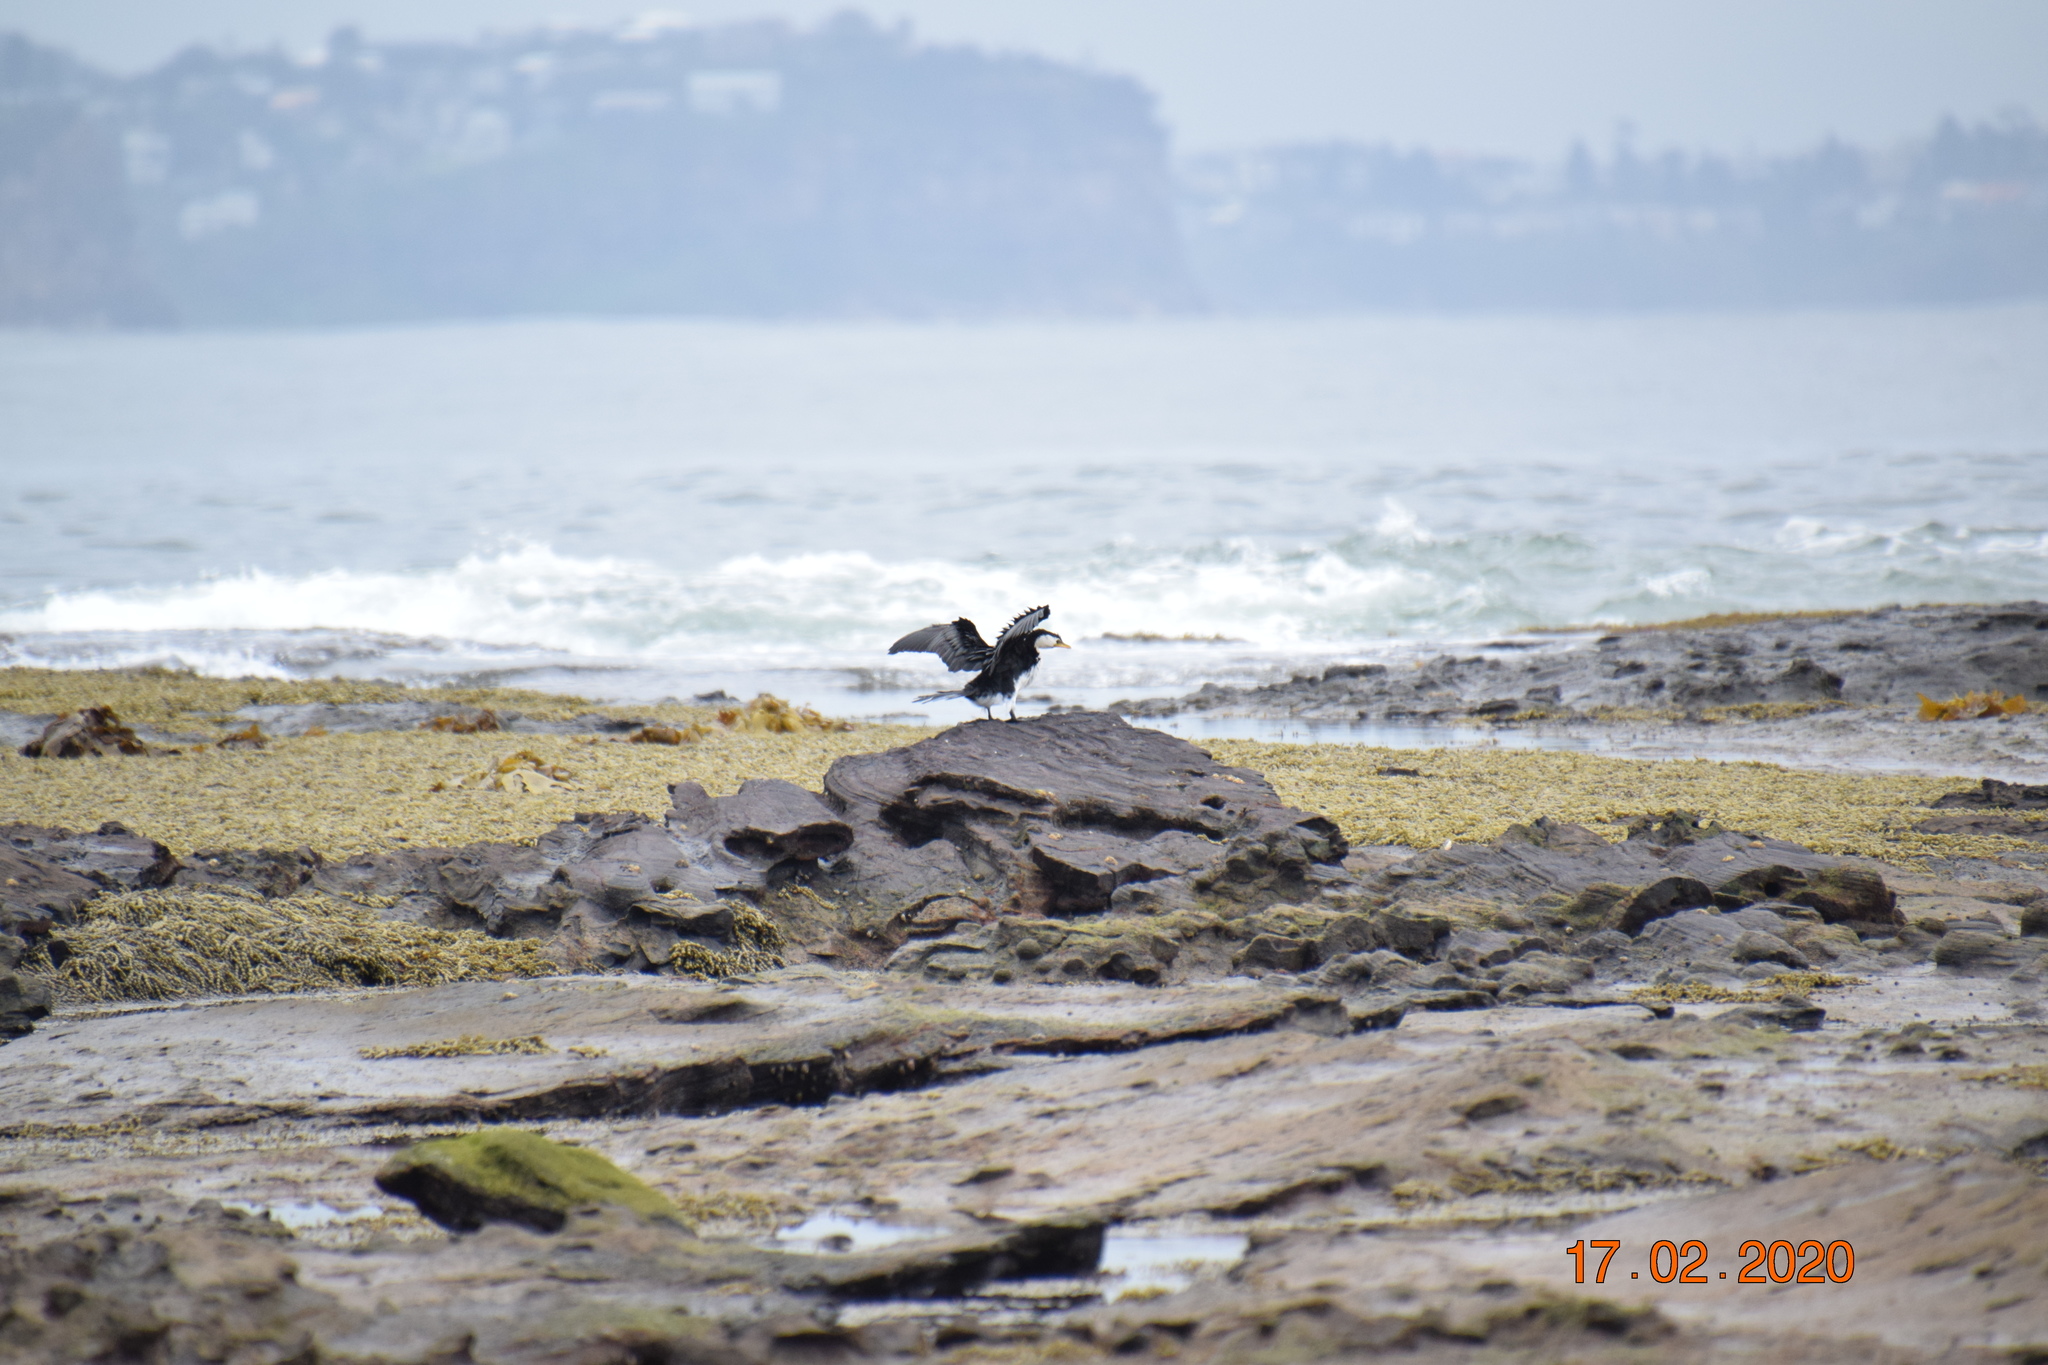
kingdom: Animalia
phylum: Chordata
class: Aves
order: Suliformes
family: Phalacrocoracidae
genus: Microcarbo
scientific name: Microcarbo melanoleucos
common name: Little pied cormorant
